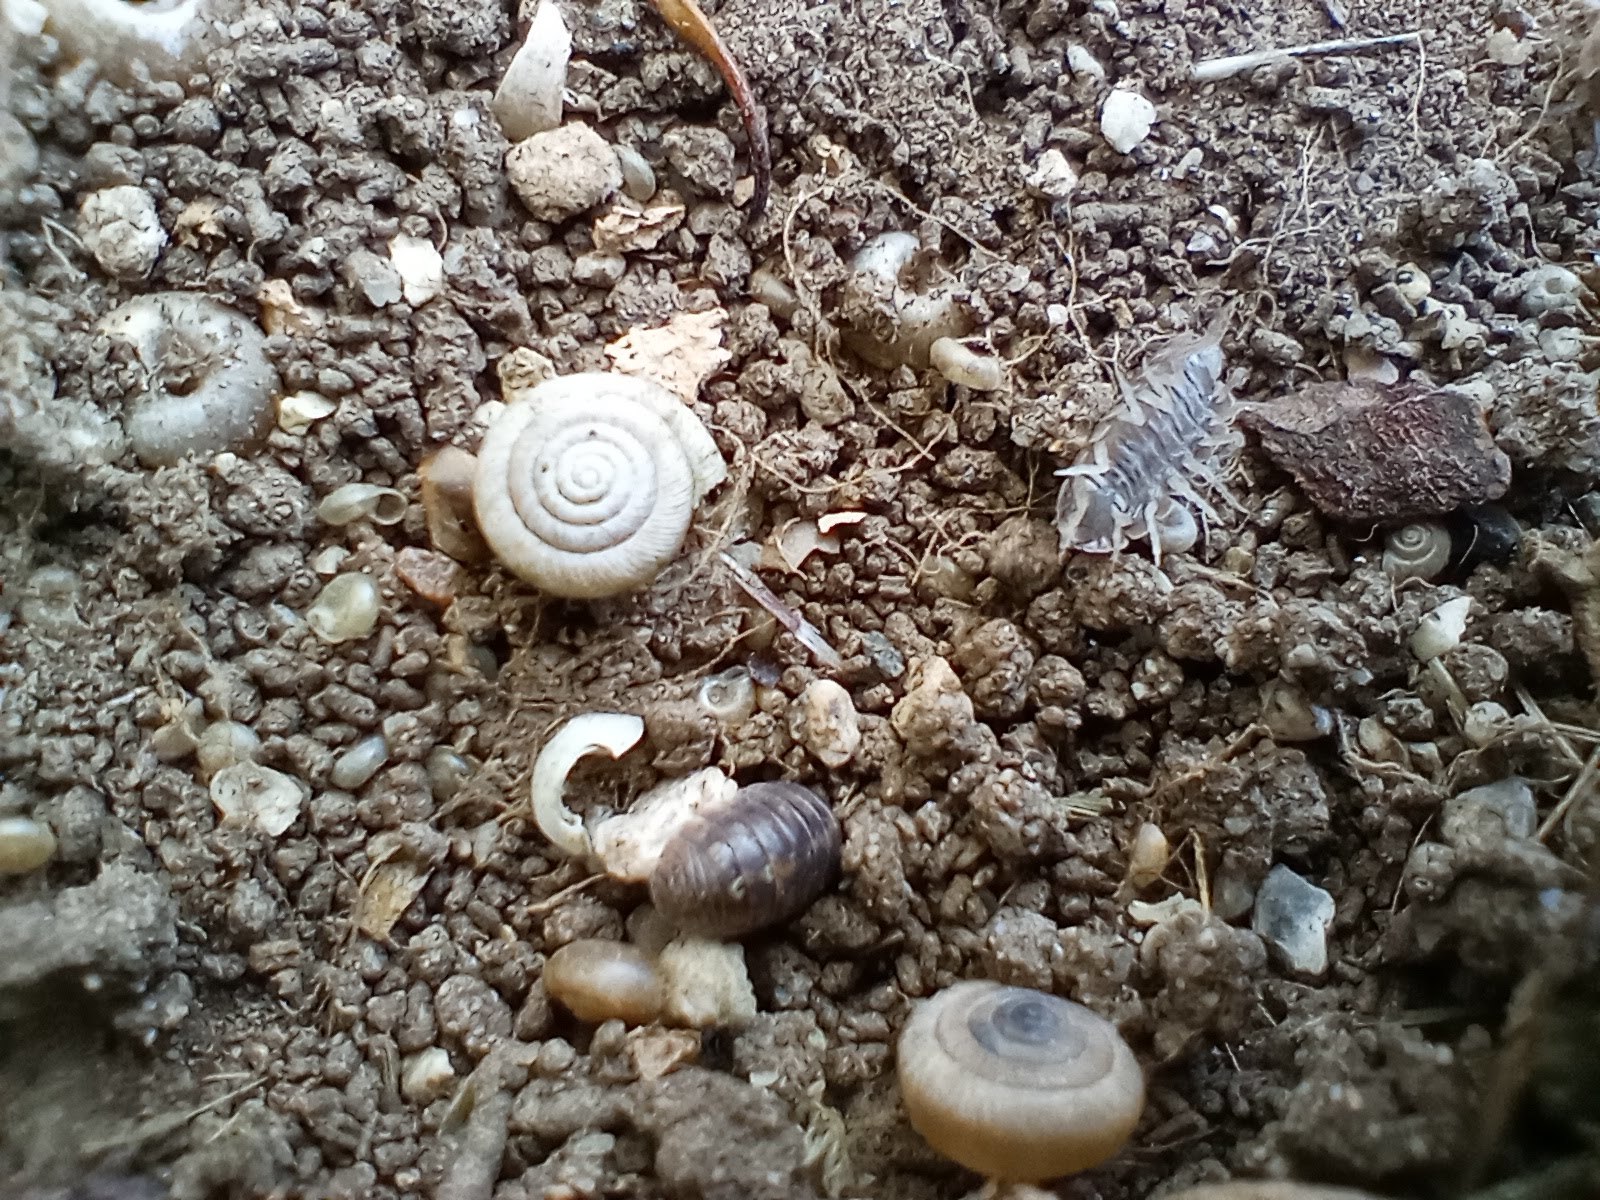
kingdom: Animalia
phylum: Mollusca
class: Gastropoda
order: Stylommatophora
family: Polygyridae
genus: Polygyra
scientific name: Polygyra cereolus
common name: Southern flatcone snail
